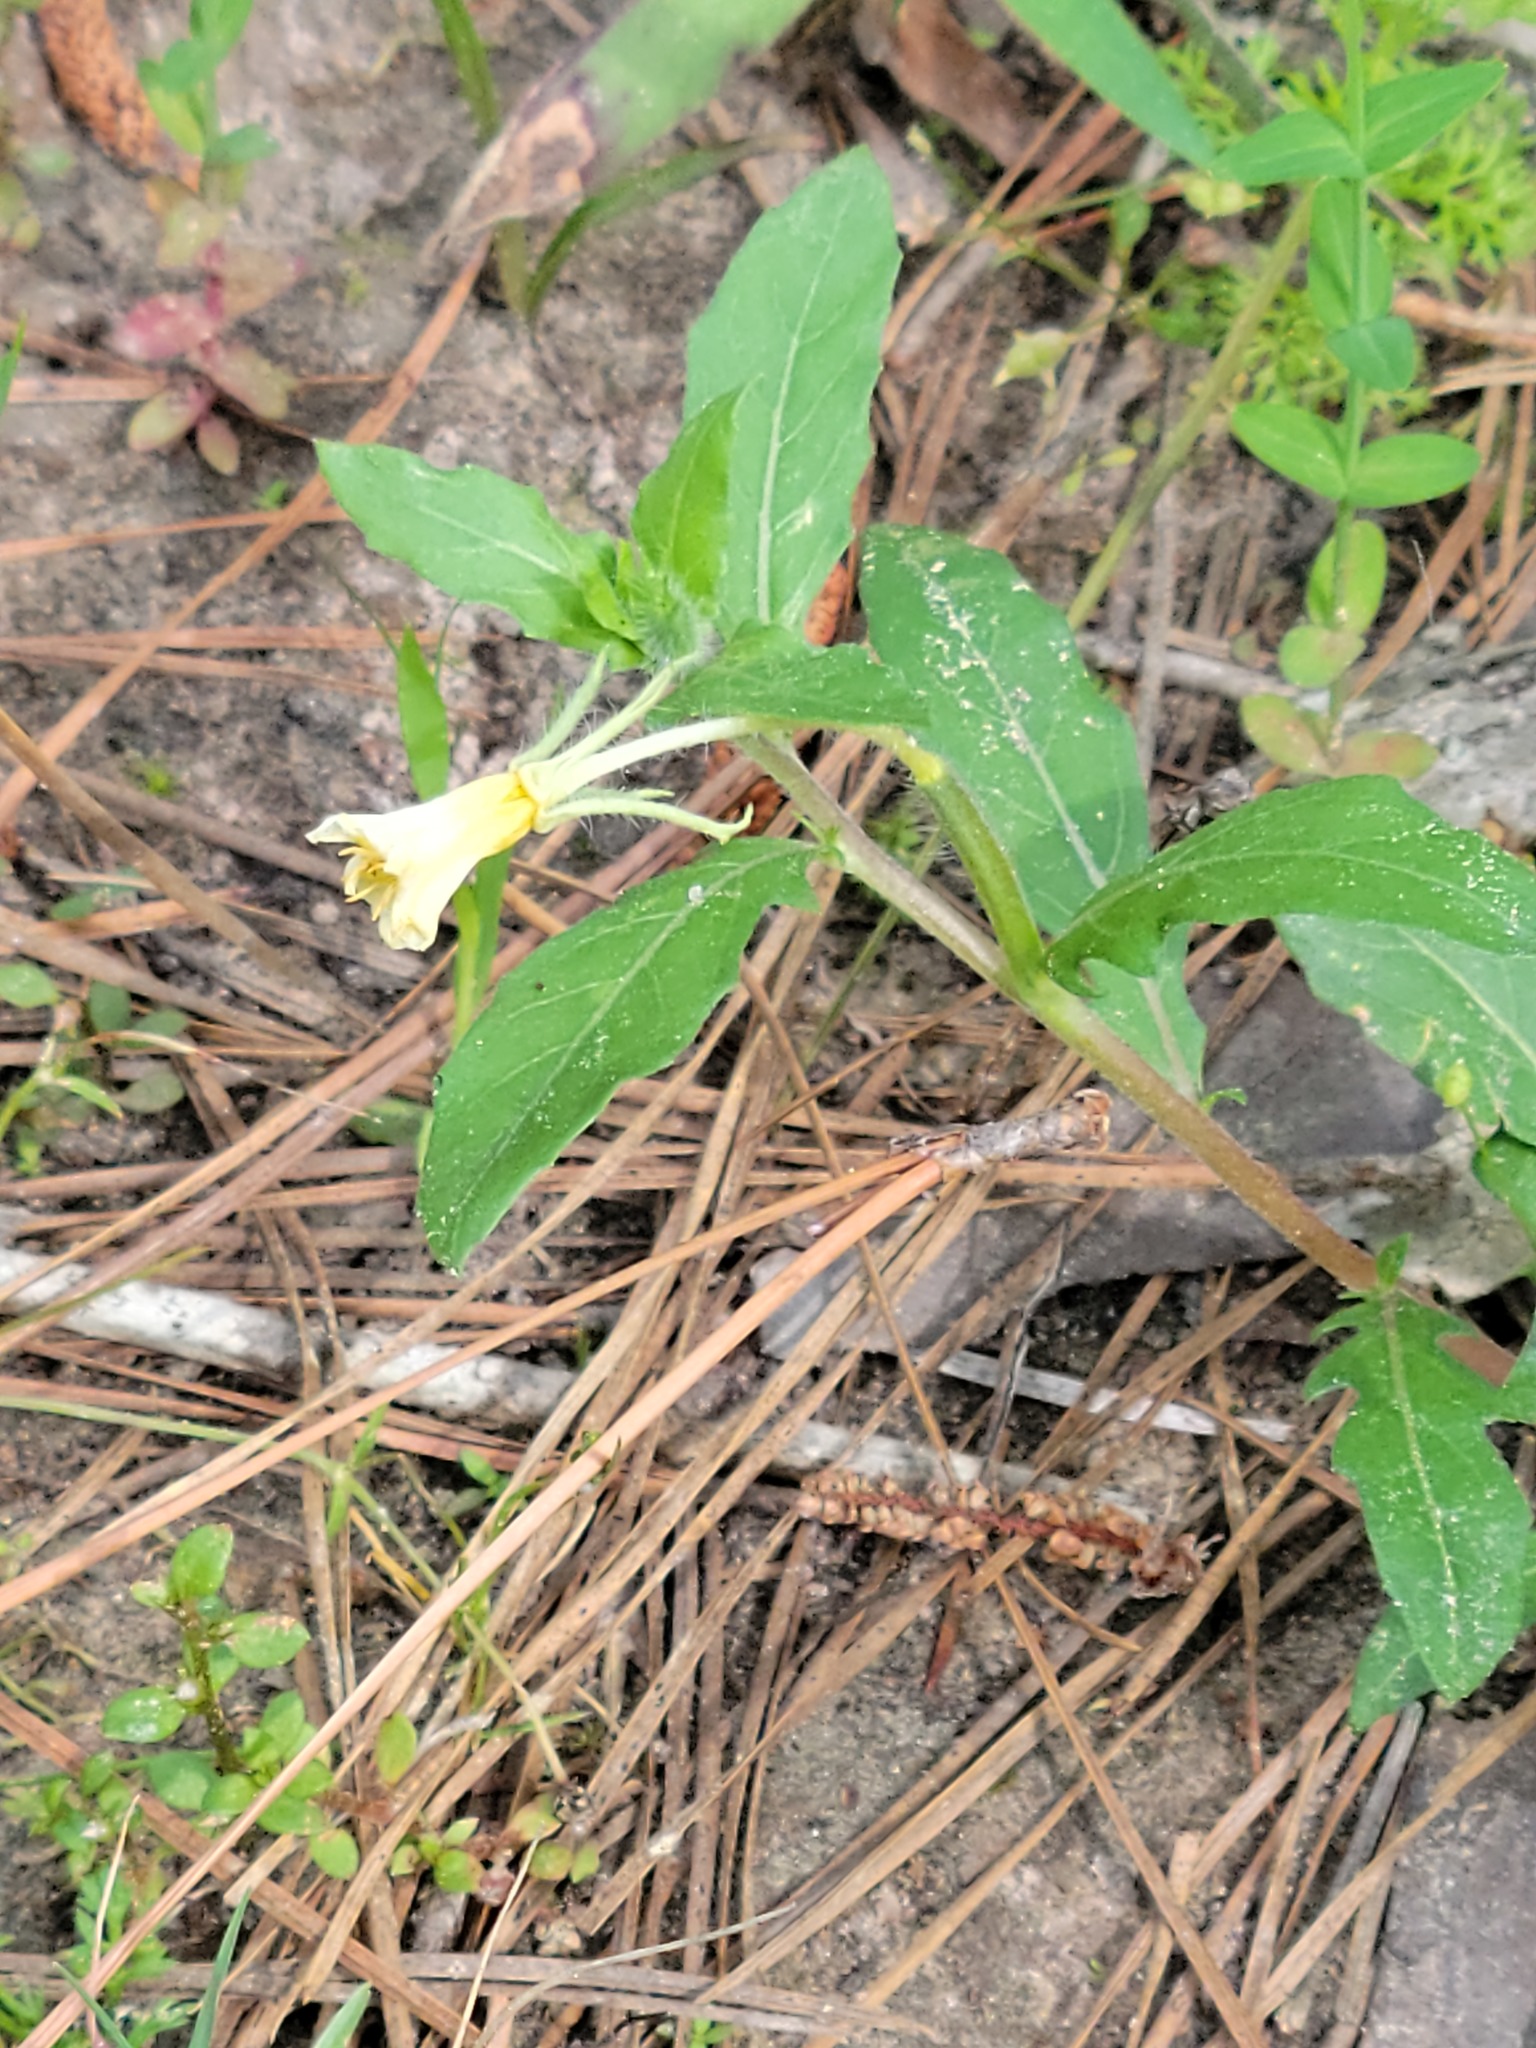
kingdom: Plantae
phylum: Tracheophyta
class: Magnoliopsida
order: Myrtales
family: Onagraceae
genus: Oenothera
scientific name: Oenothera laciniata
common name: Cut-leaved evening-primrose
